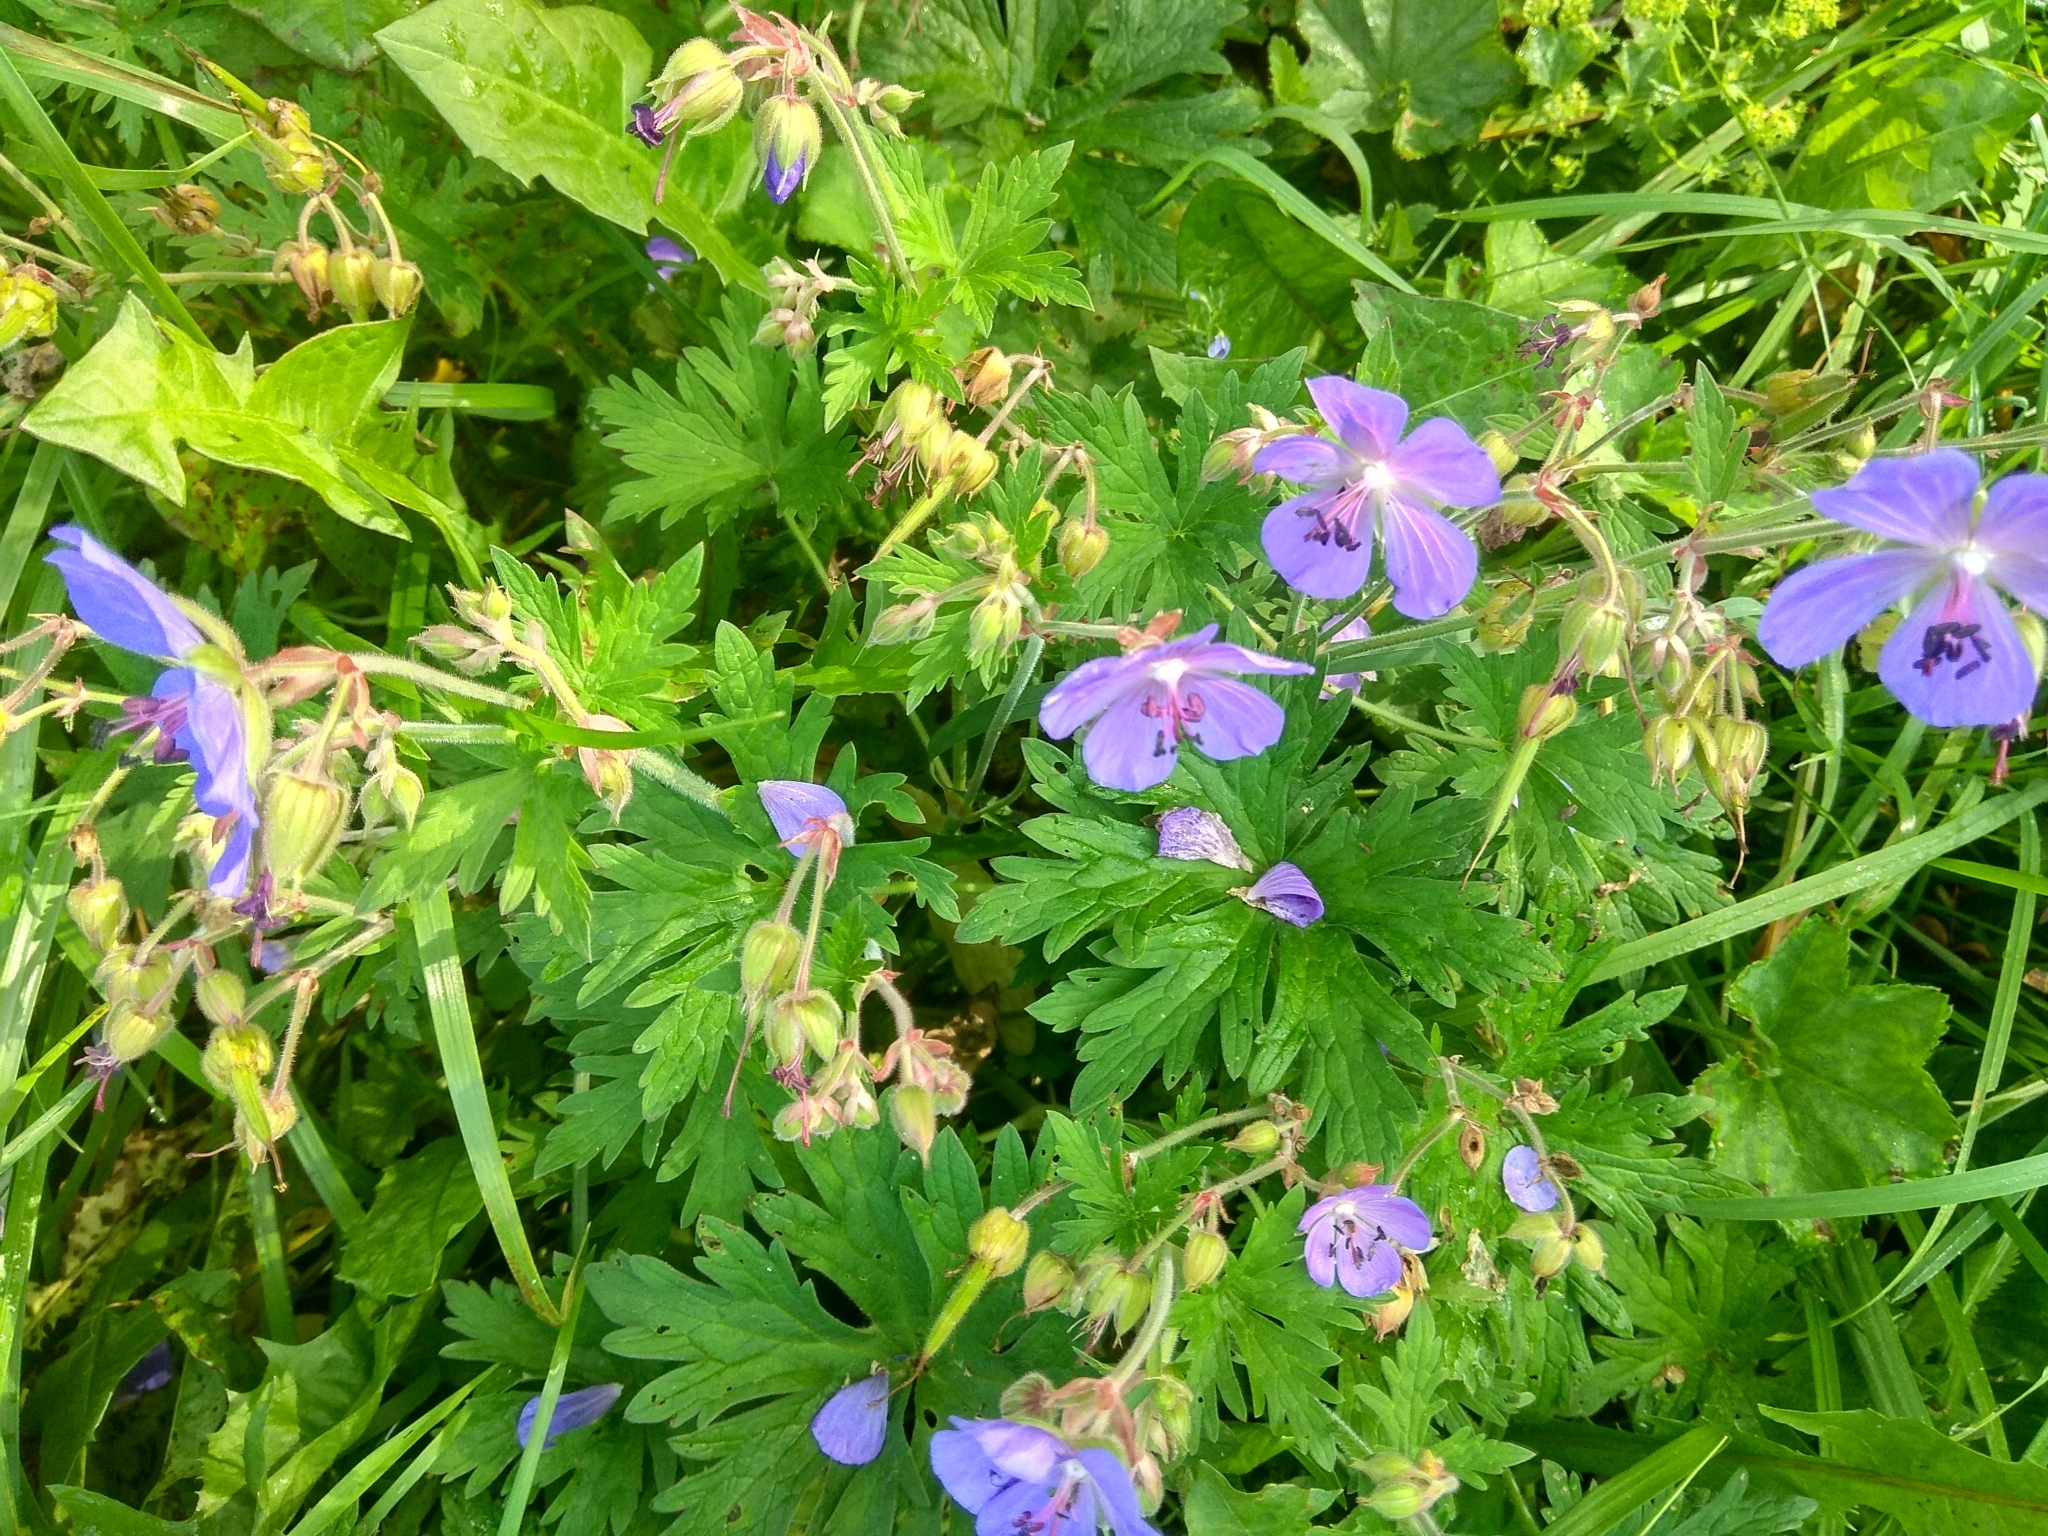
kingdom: Plantae
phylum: Tracheophyta
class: Magnoliopsida
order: Geraniales
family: Geraniaceae
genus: Geranium
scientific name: Geranium pratense
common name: Meadow crane's-bill
